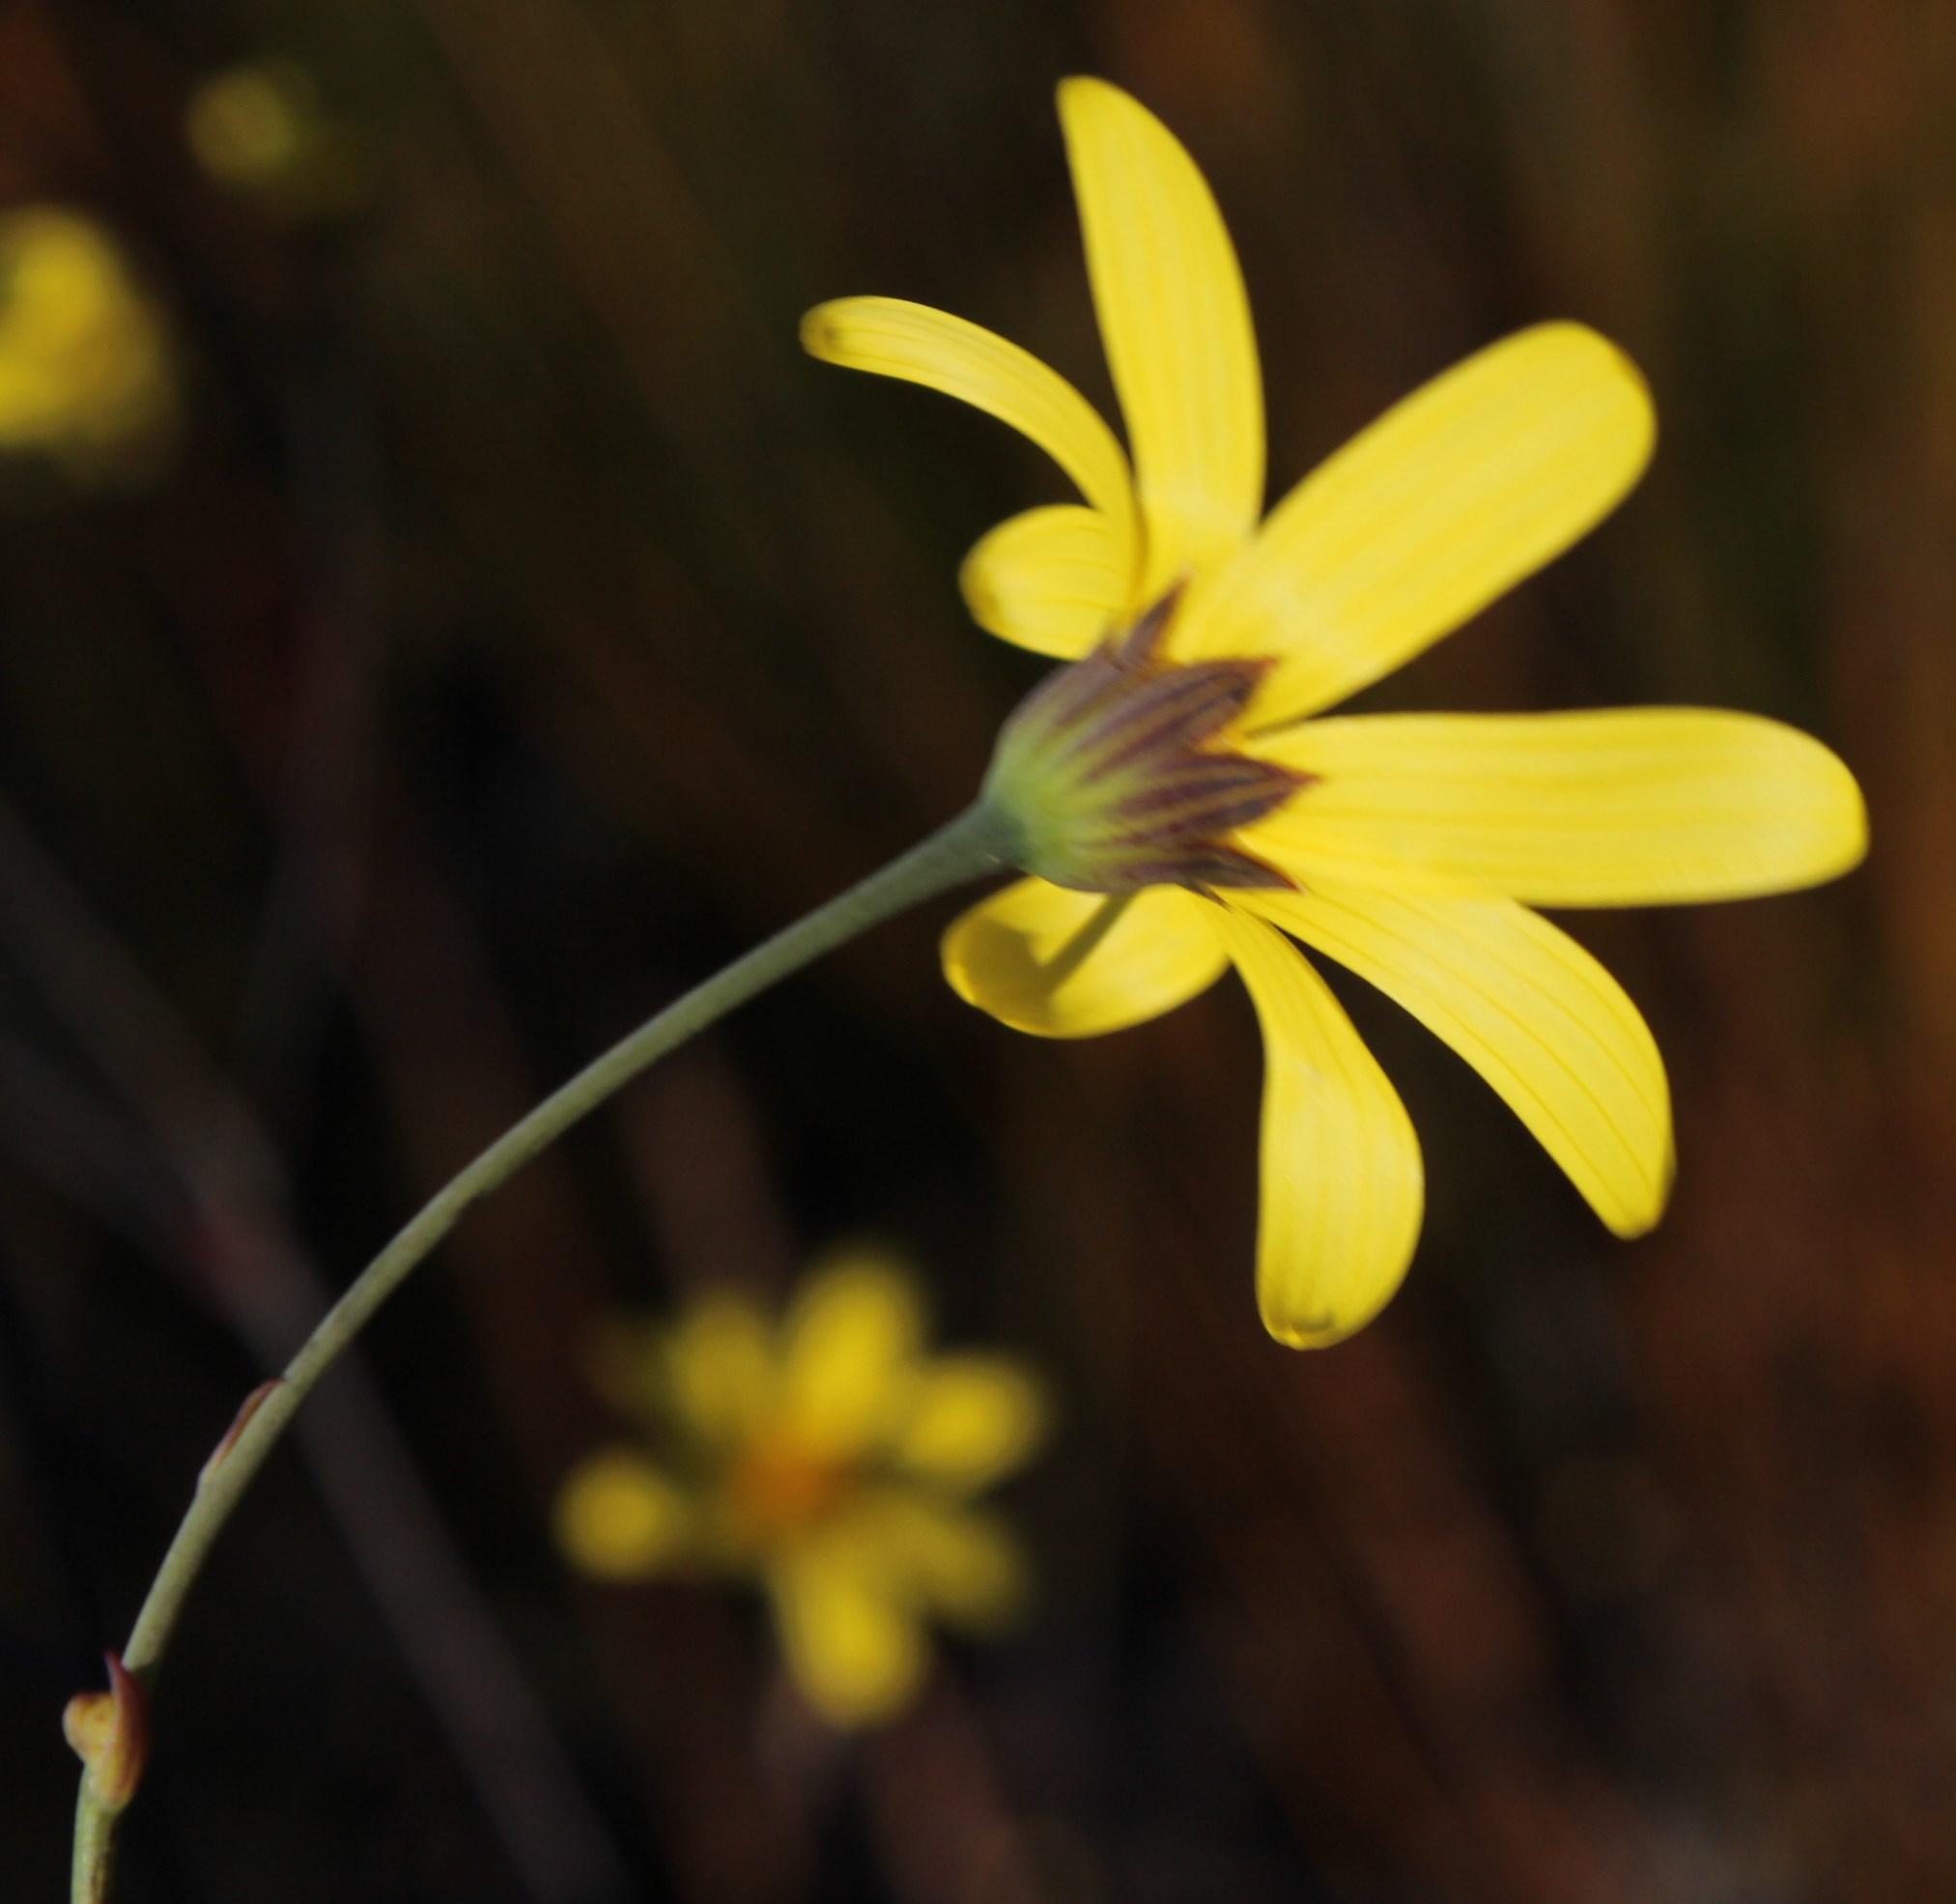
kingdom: Plantae
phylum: Tracheophyta
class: Magnoliopsida
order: Asterales
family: Asteraceae
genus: Othonna
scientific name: Othonna quinquedentata
